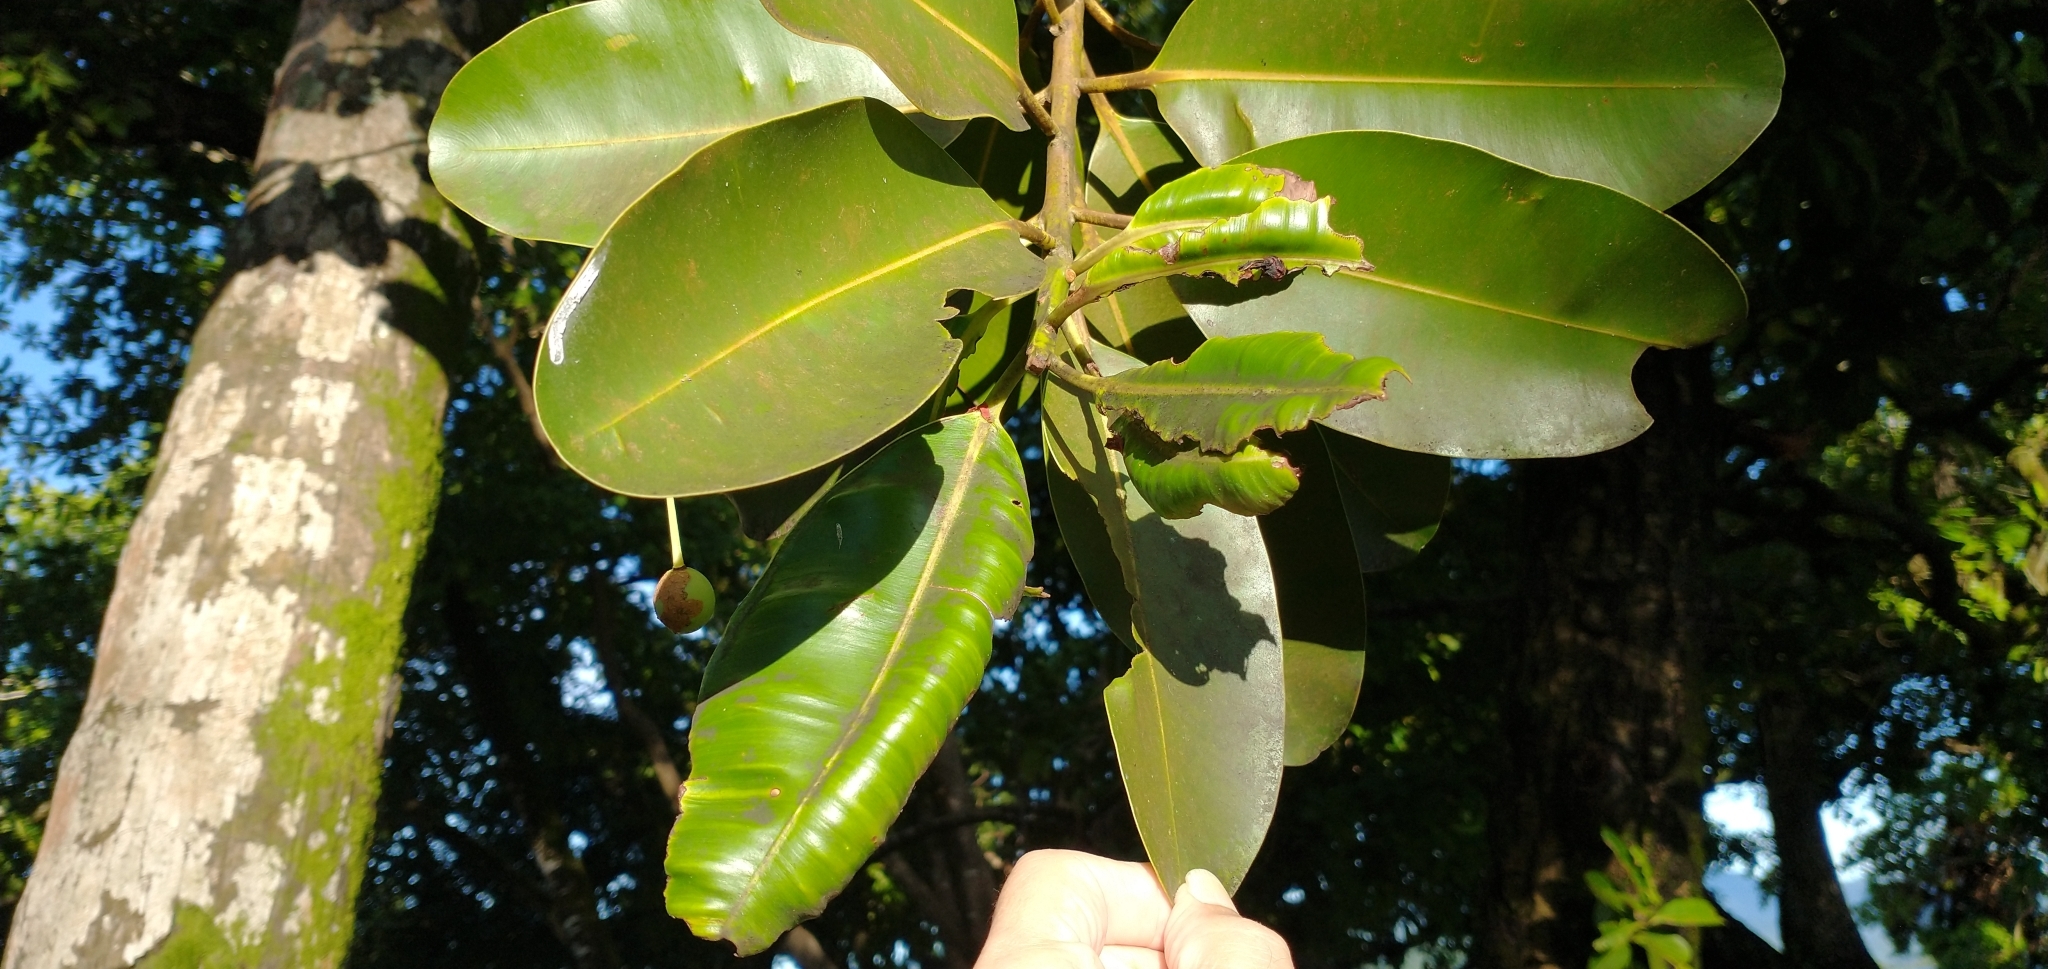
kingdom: Plantae
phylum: Tracheophyta
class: Magnoliopsida
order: Malpighiales
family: Calophyllaceae
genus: Calophyllum
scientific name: Calophyllum inophyllum
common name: Alexandrian laurel
